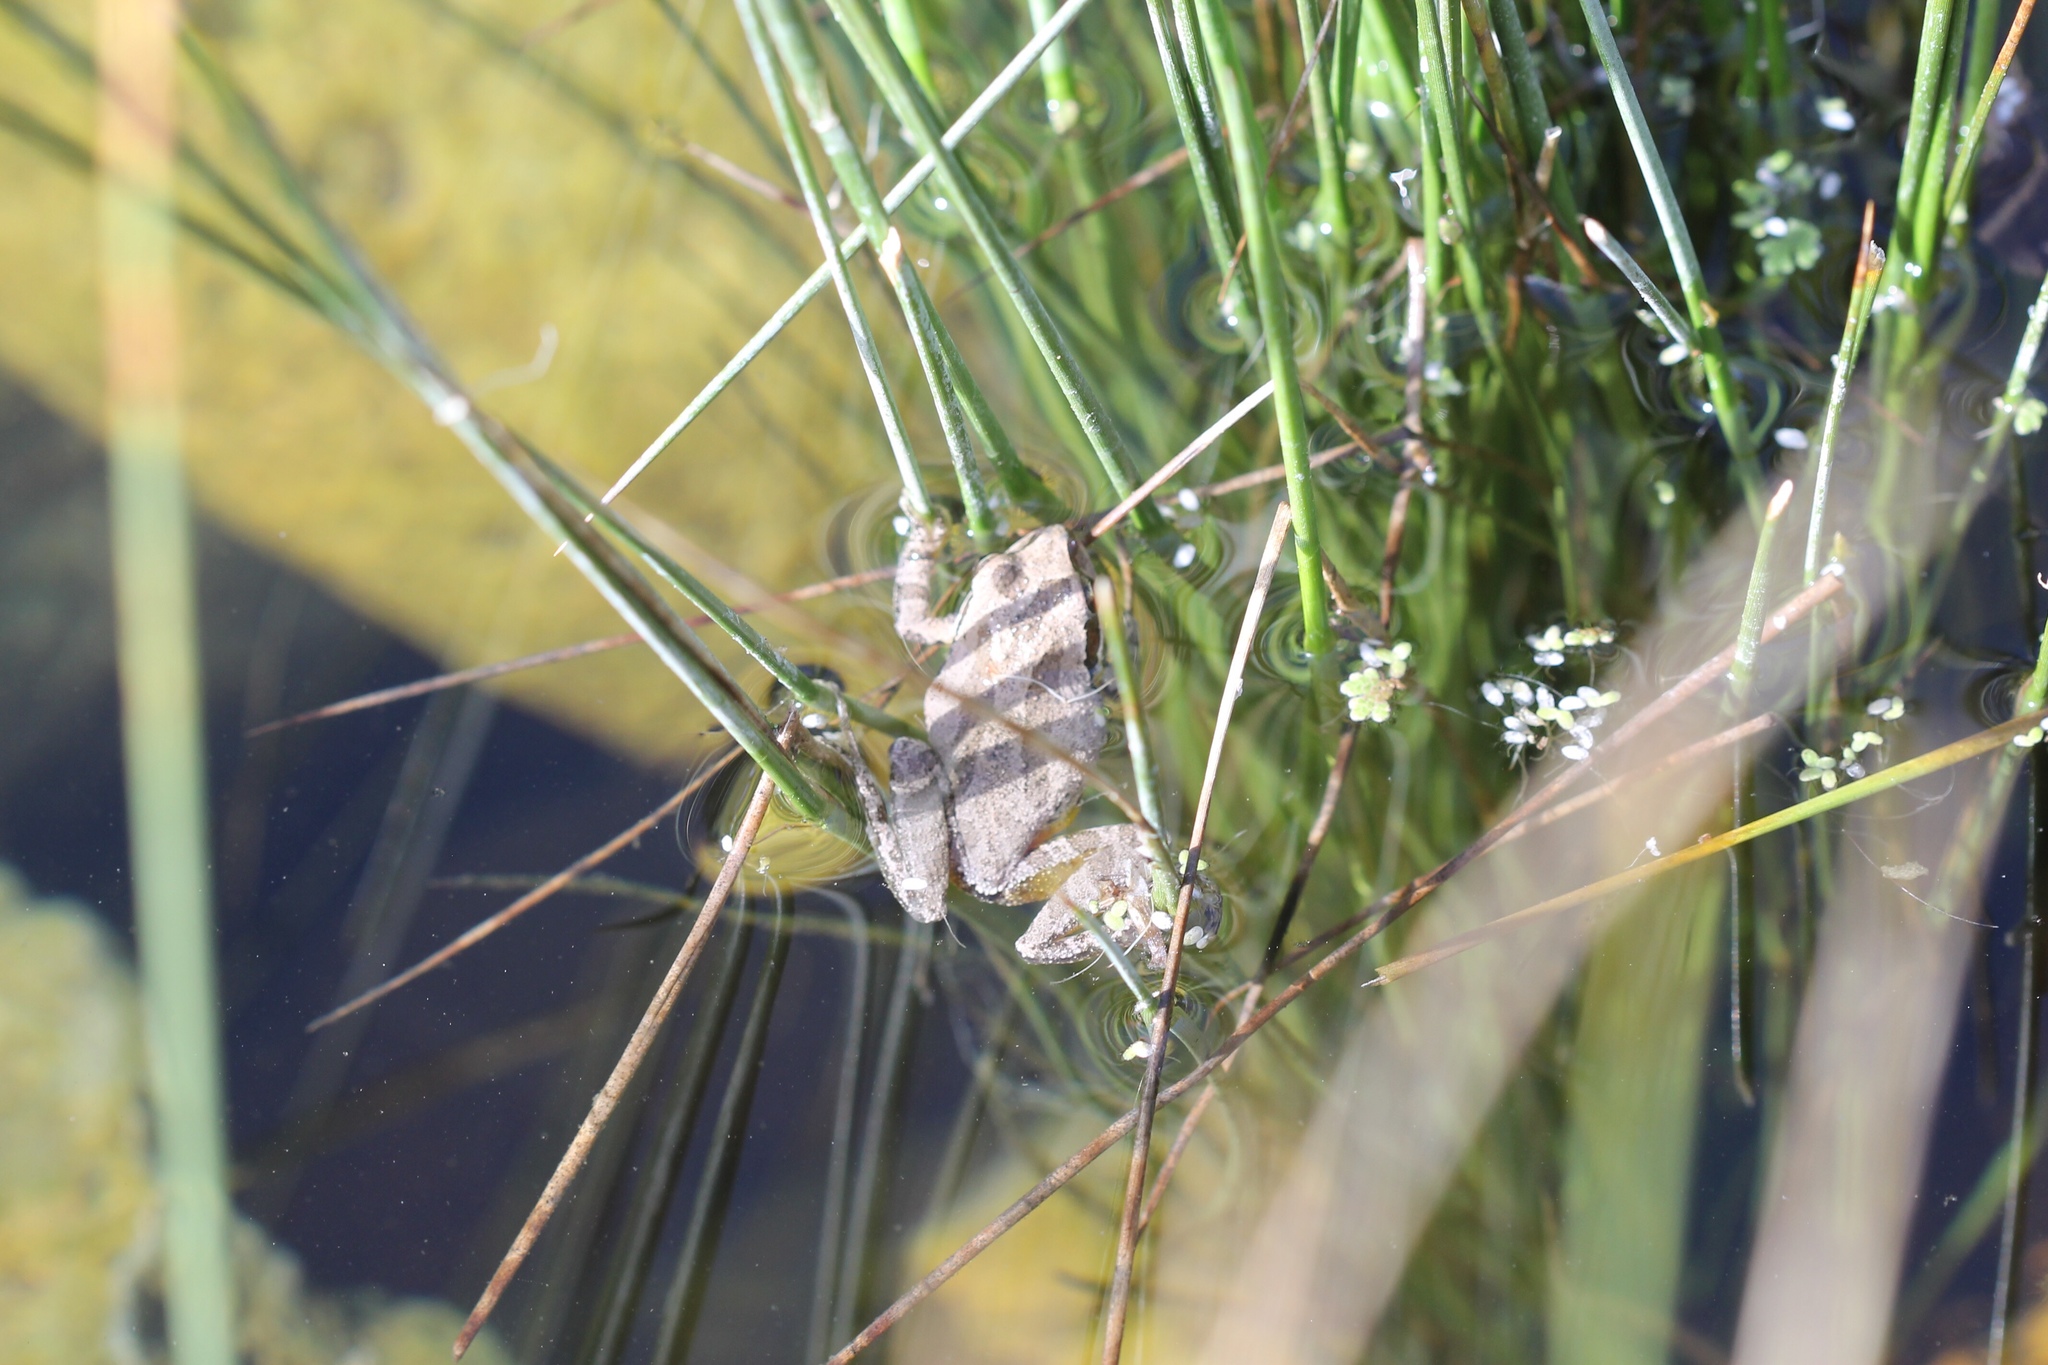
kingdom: Animalia
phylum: Chordata
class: Amphibia
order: Anura
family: Hylidae
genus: Pseudacris
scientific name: Pseudacris regilla
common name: Pacific chorus frog
